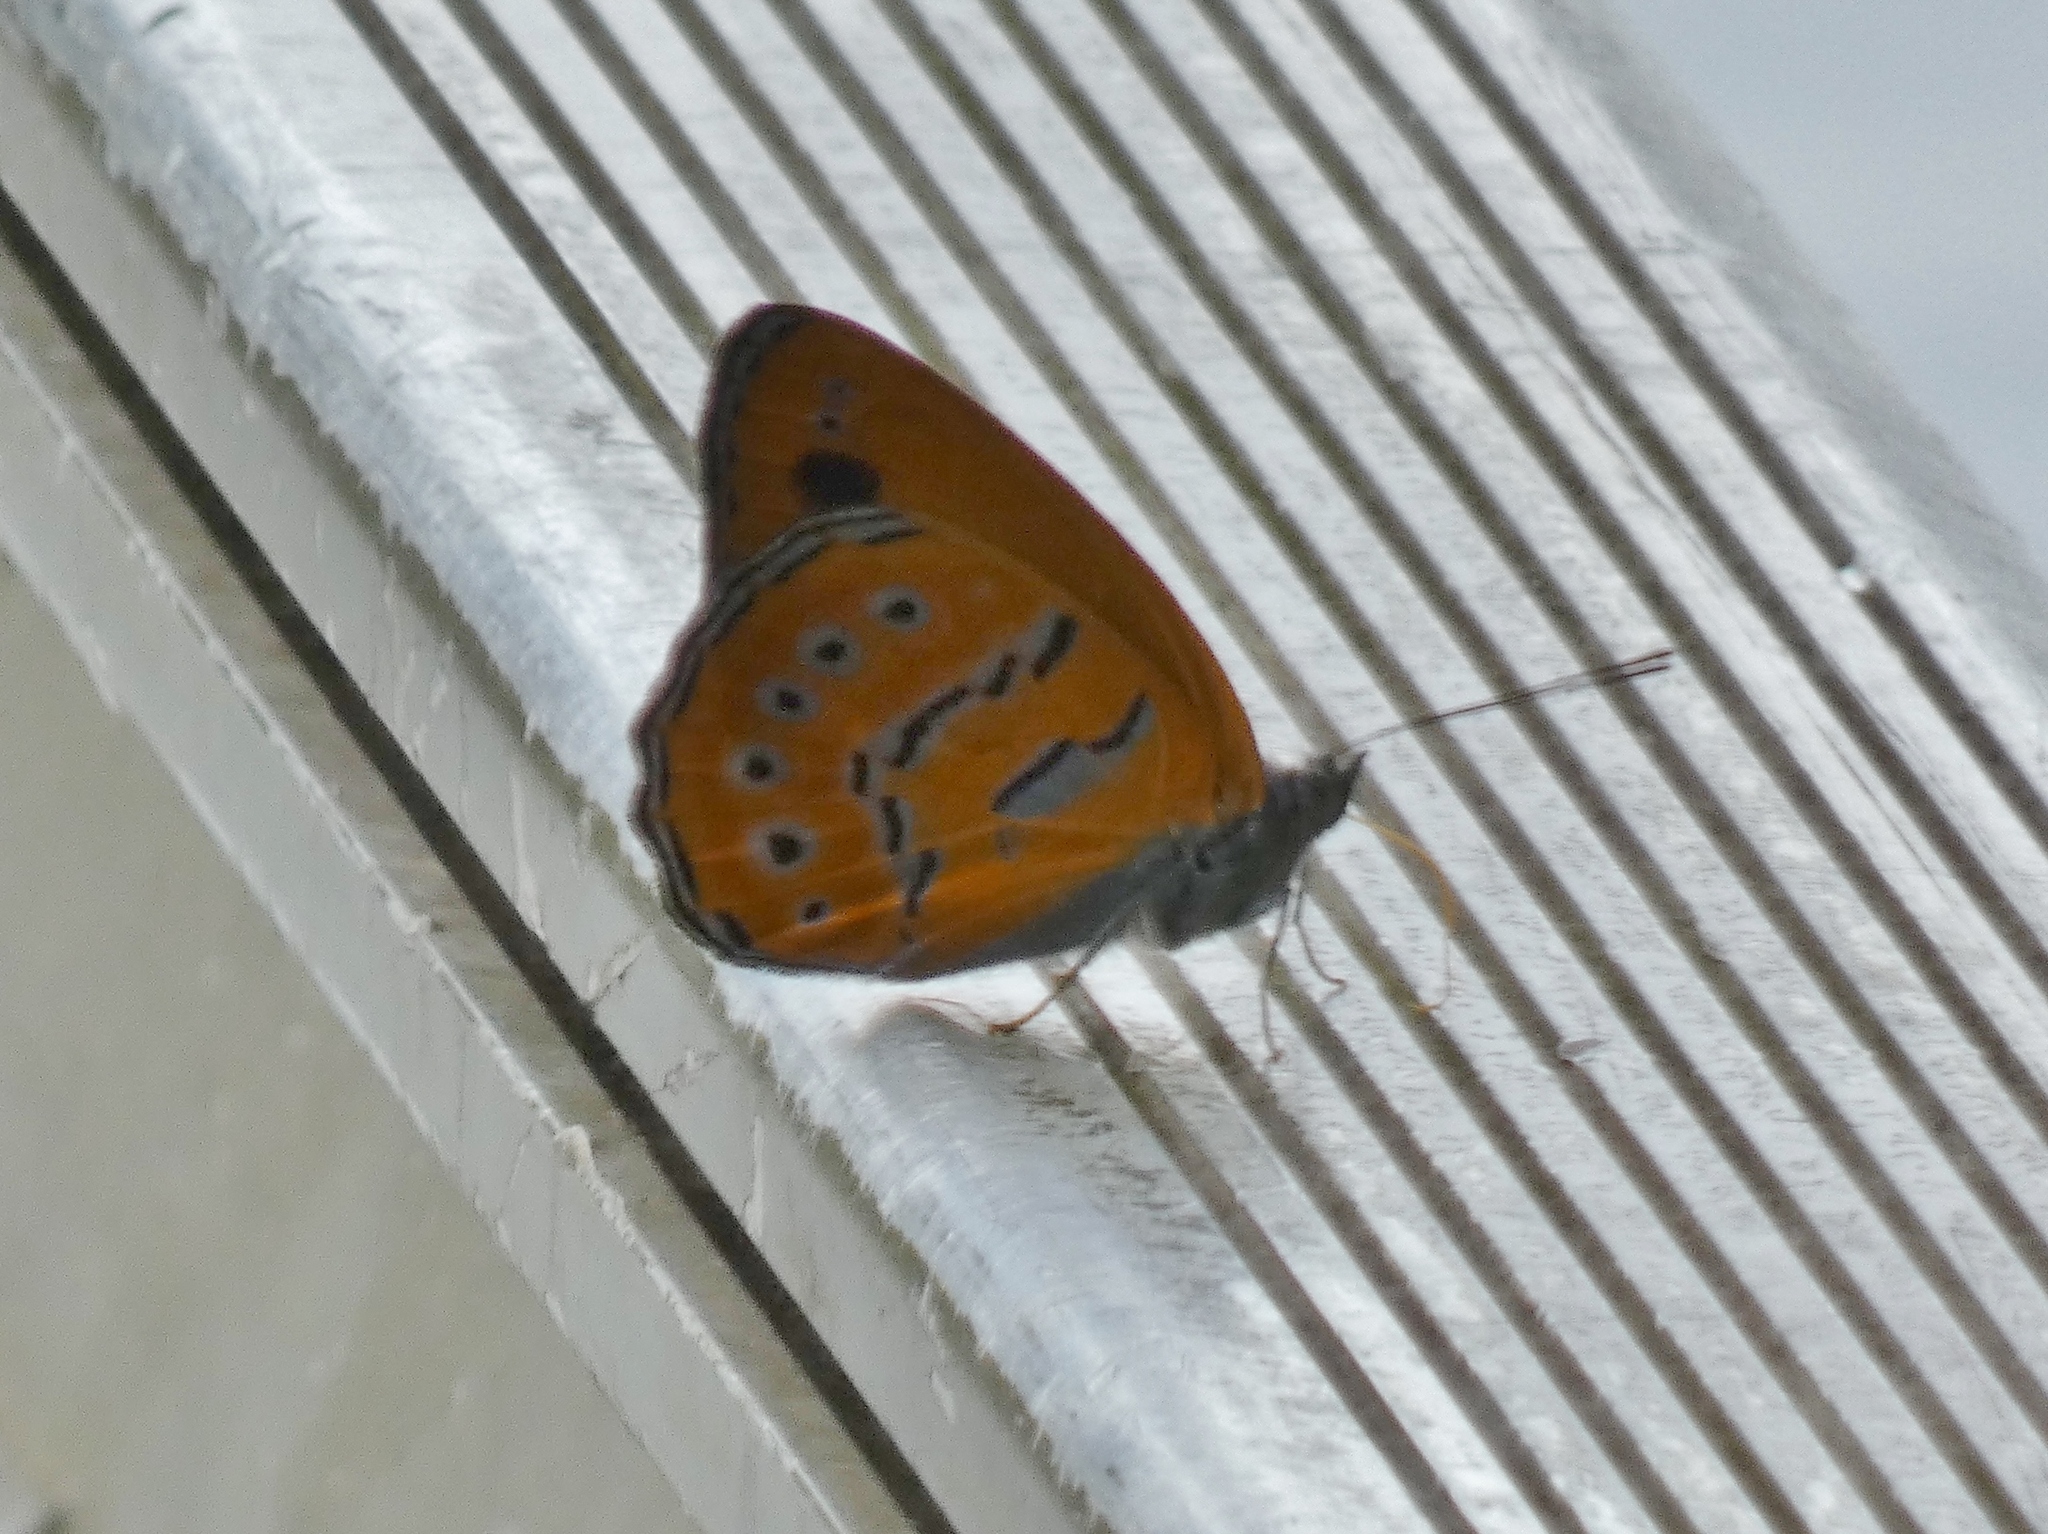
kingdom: Animalia
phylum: Arthropoda
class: Insecta
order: Lepidoptera
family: Nymphalidae
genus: Sevenia
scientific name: Sevenia
